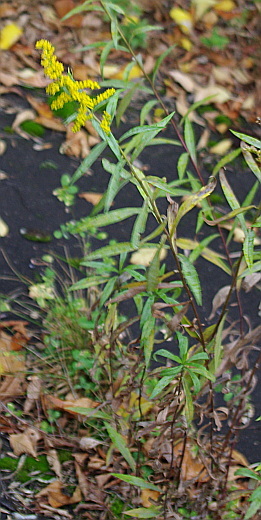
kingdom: Plantae
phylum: Tracheophyta
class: Magnoliopsida
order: Asterales
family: Asteraceae
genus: Solidago
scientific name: Solidago gigantea
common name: Giant goldenrod
